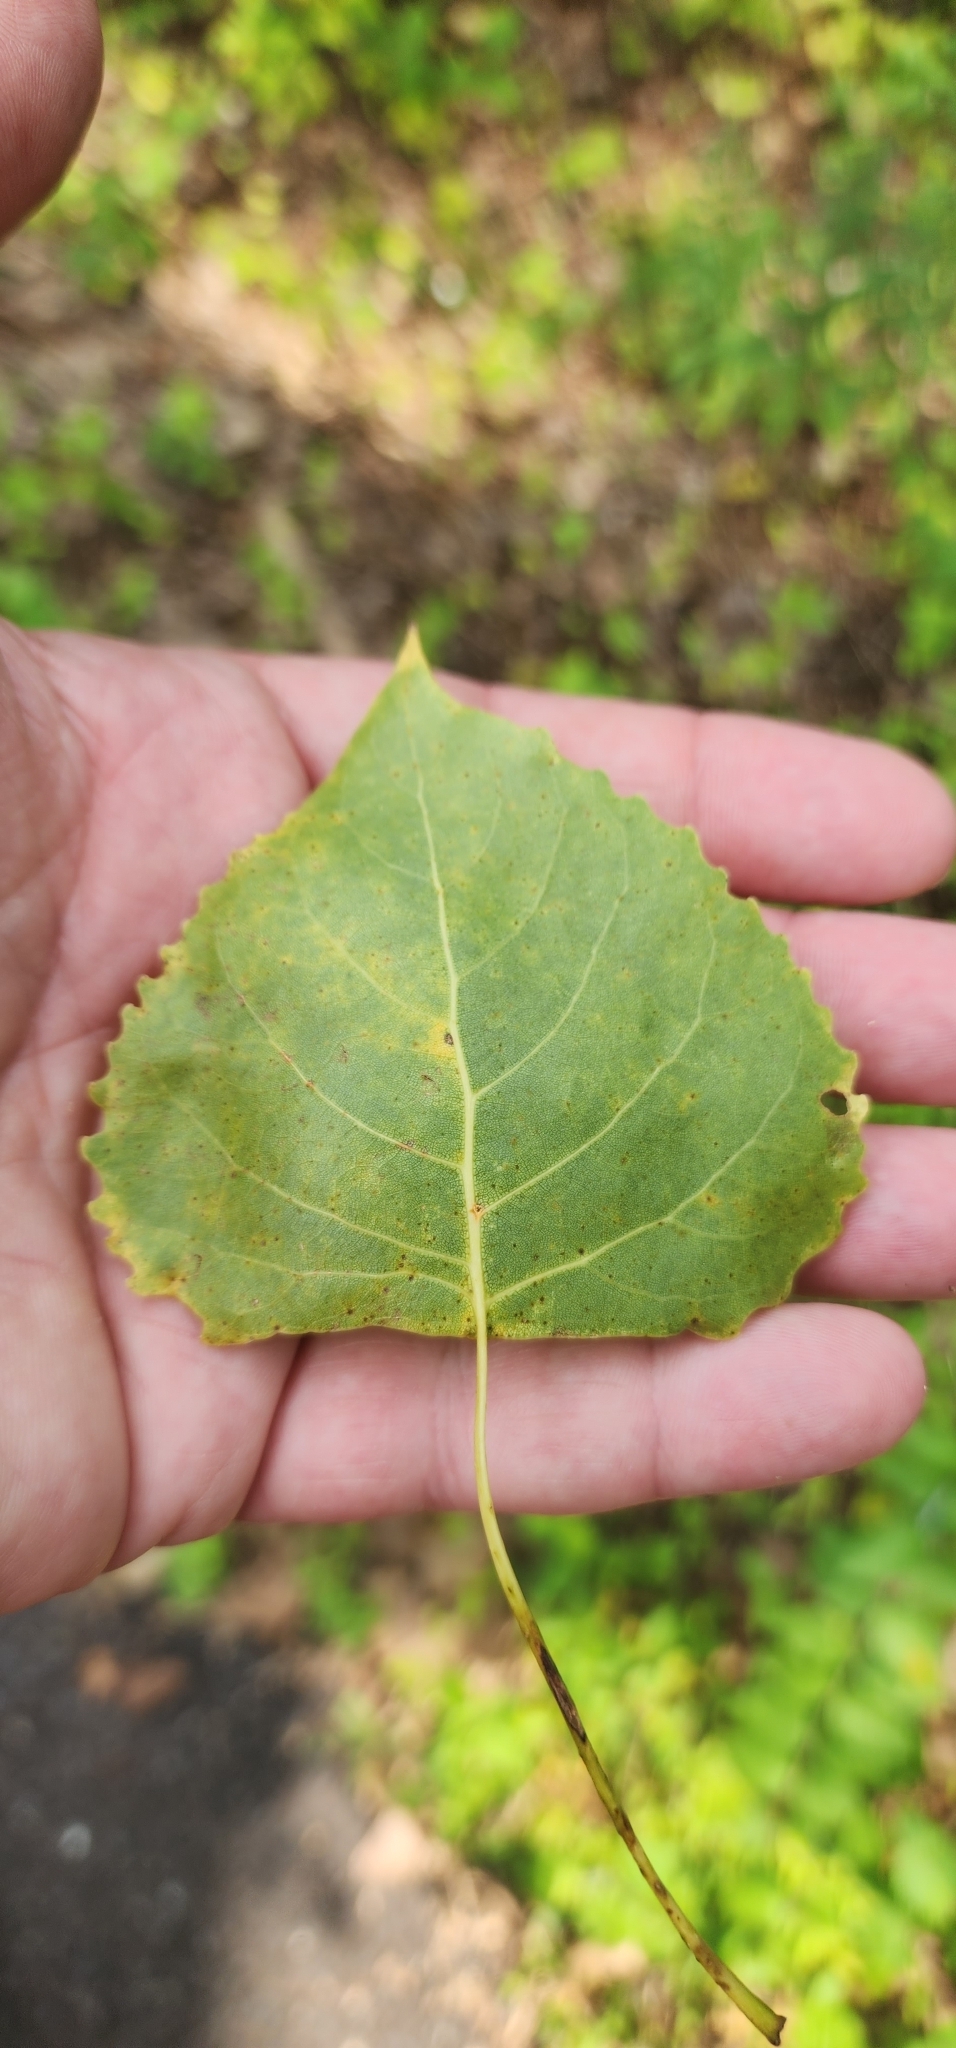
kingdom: Plantae
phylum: Tracheophyta
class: Magnoliopsida
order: Malpighiales
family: Salicaceae
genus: Populus
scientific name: Populus deltoides
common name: Eastern cottonwood
